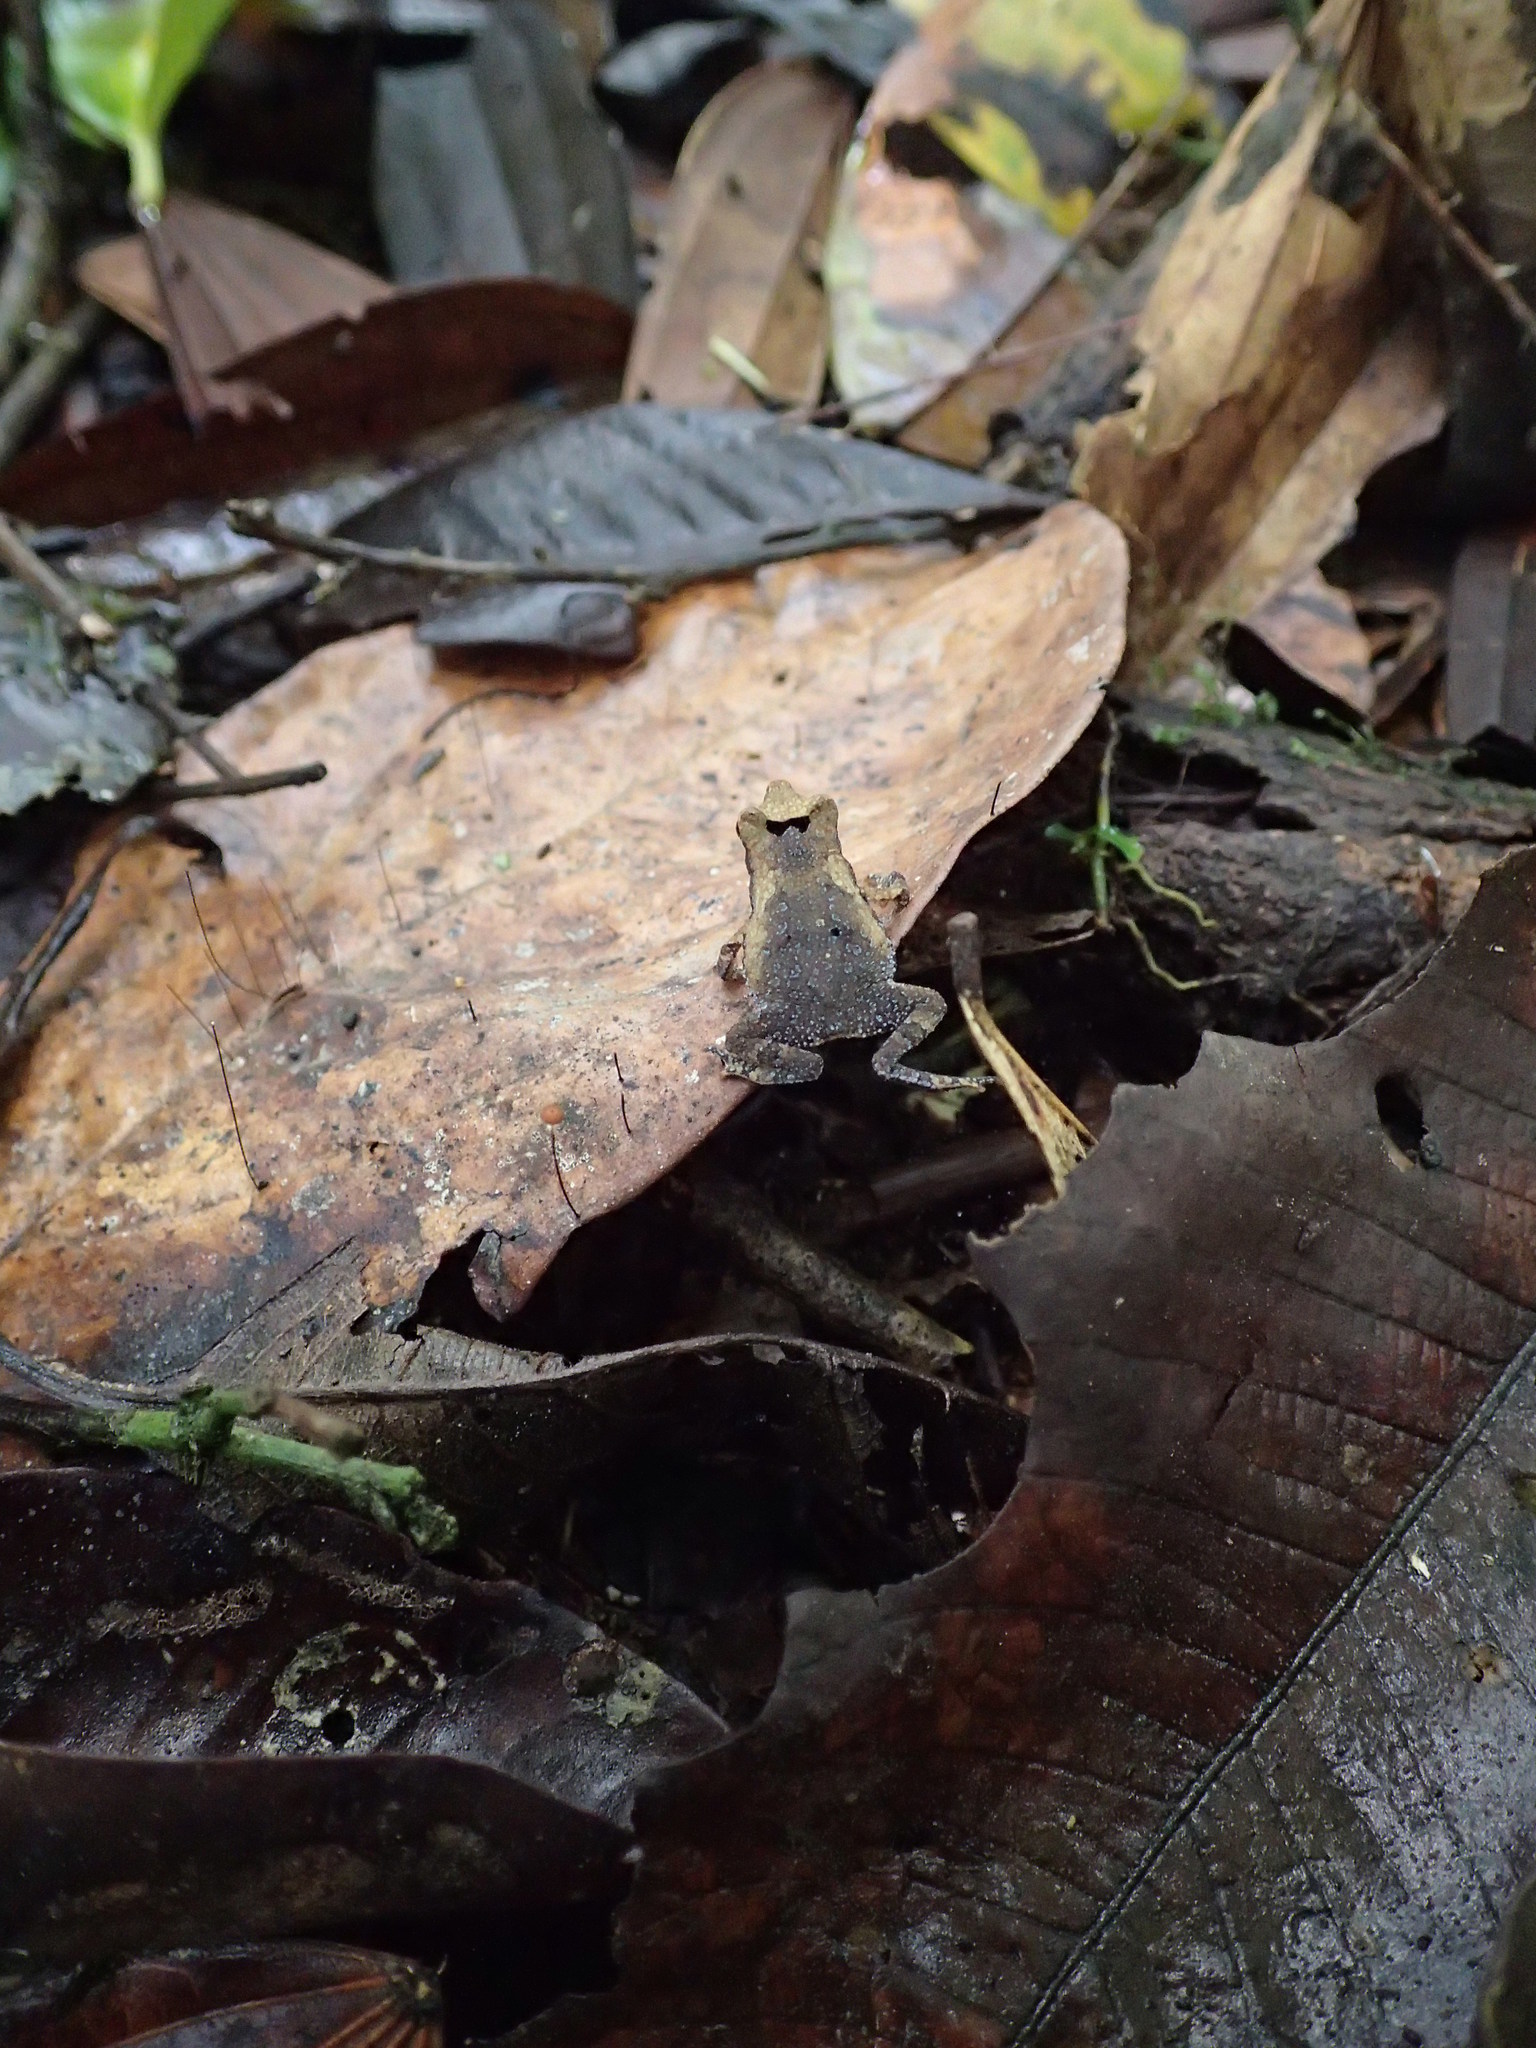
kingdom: Animalia
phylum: Chordata
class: Amphibia
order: Anura
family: Bufonidae
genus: Rhinella
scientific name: Rhinella margaritifera
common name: Mitred toad
